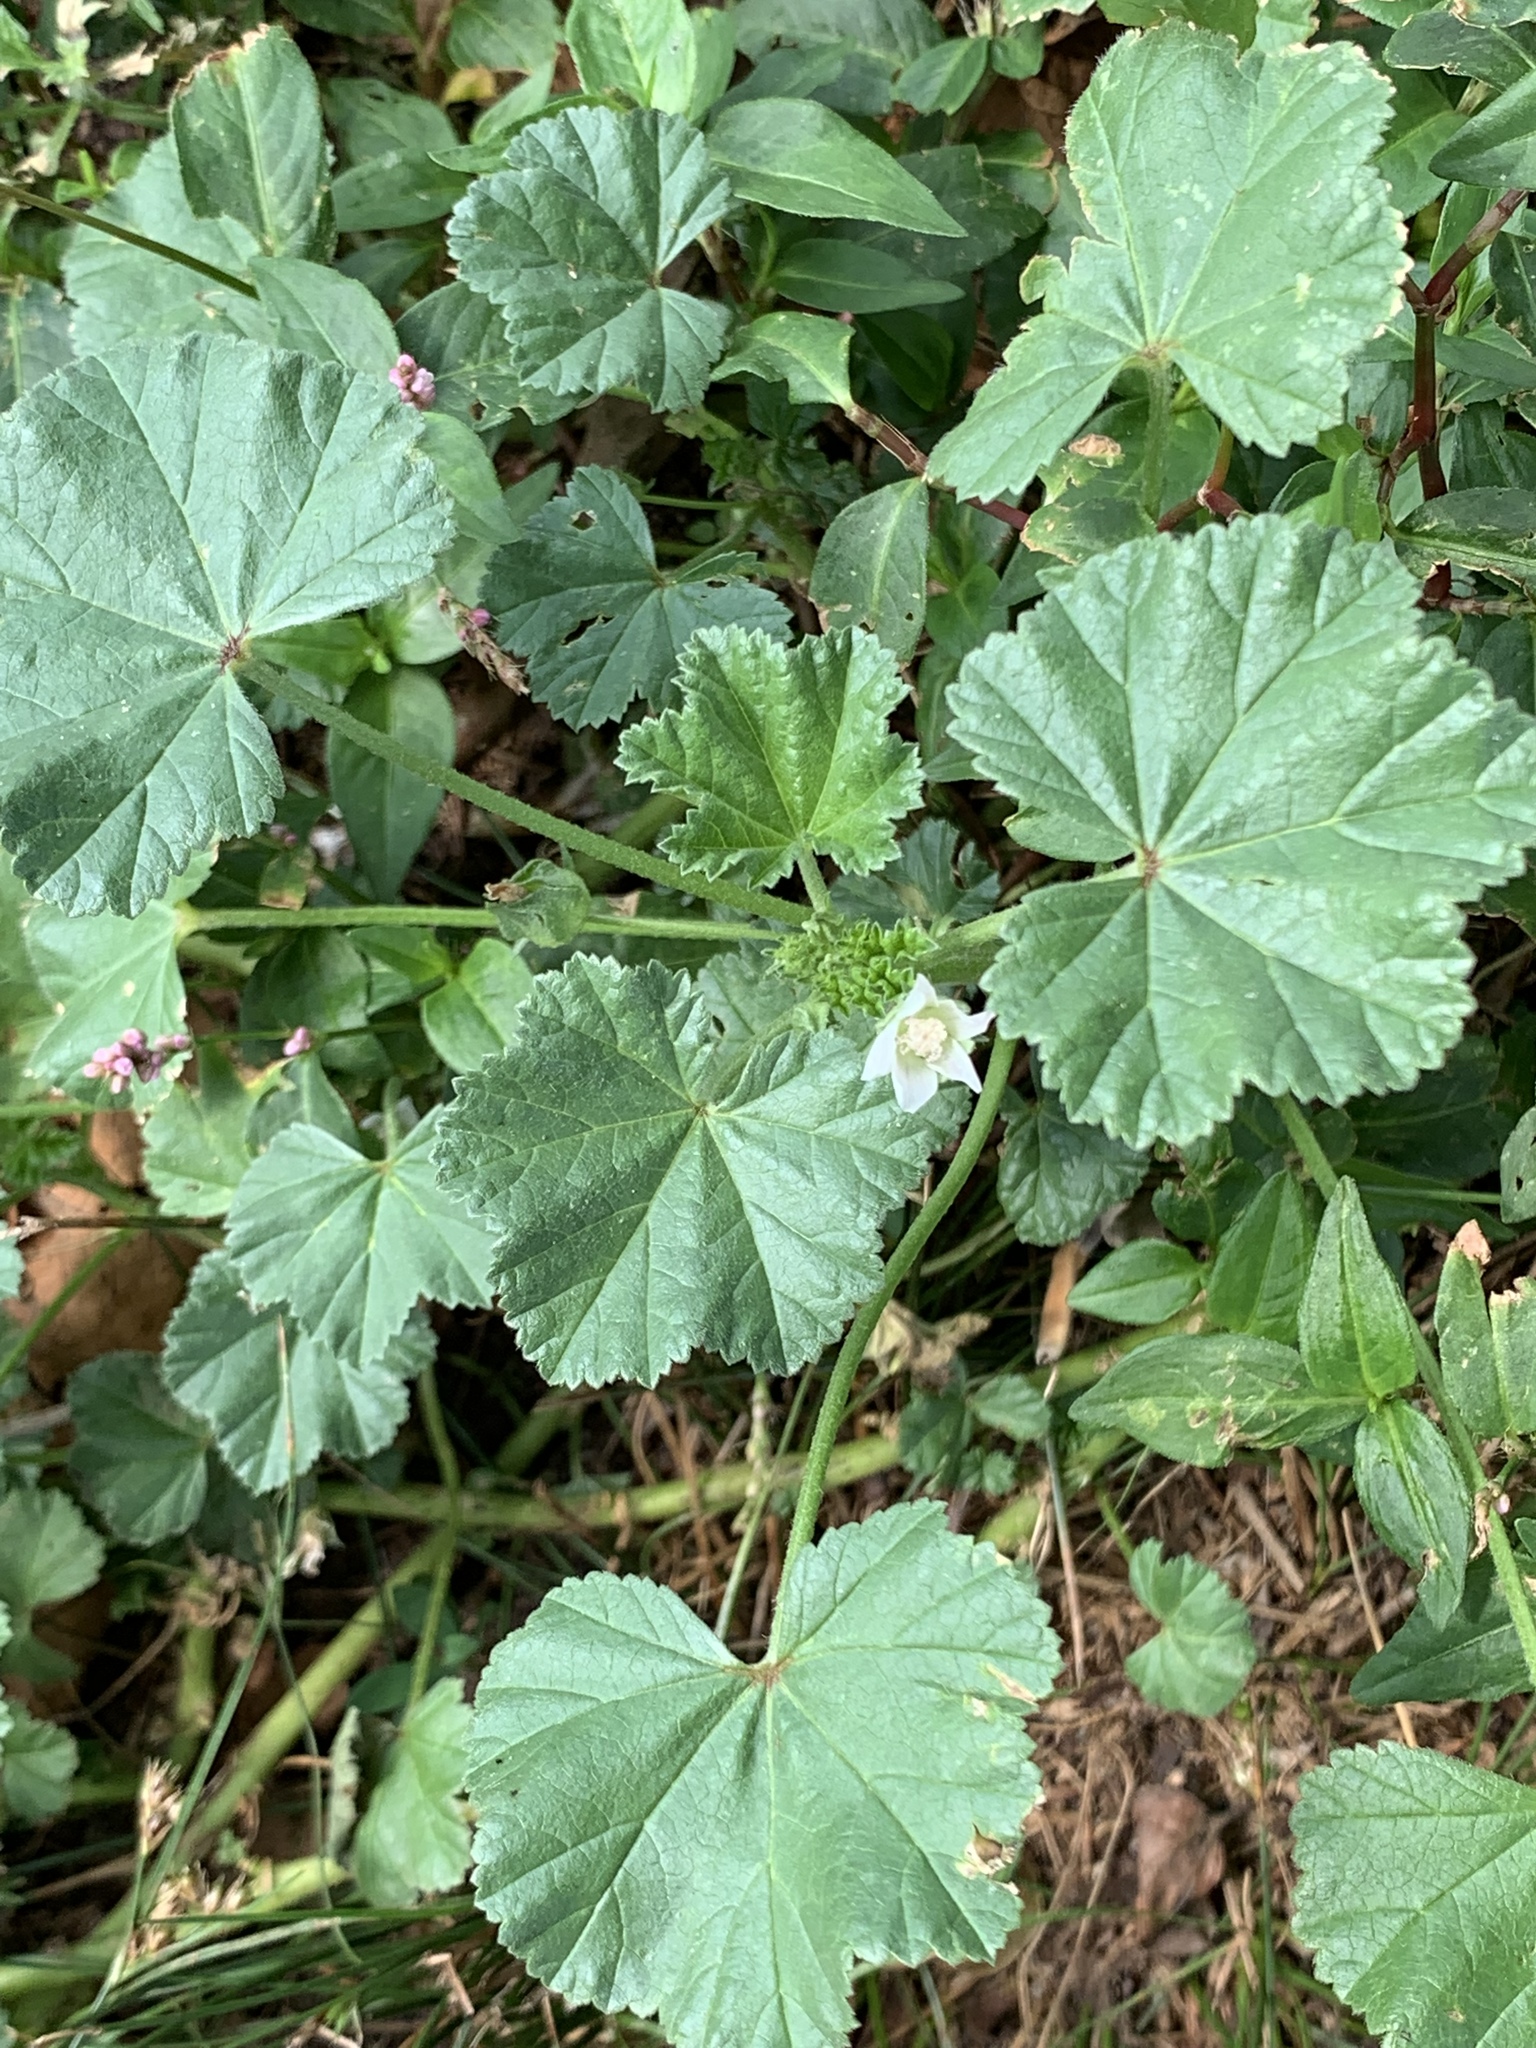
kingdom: Plantae
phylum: Tracheophyta
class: Magnoliopsida
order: Malvales
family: Malvaceae
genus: Malva
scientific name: Malva neglecta
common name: Common mallow
